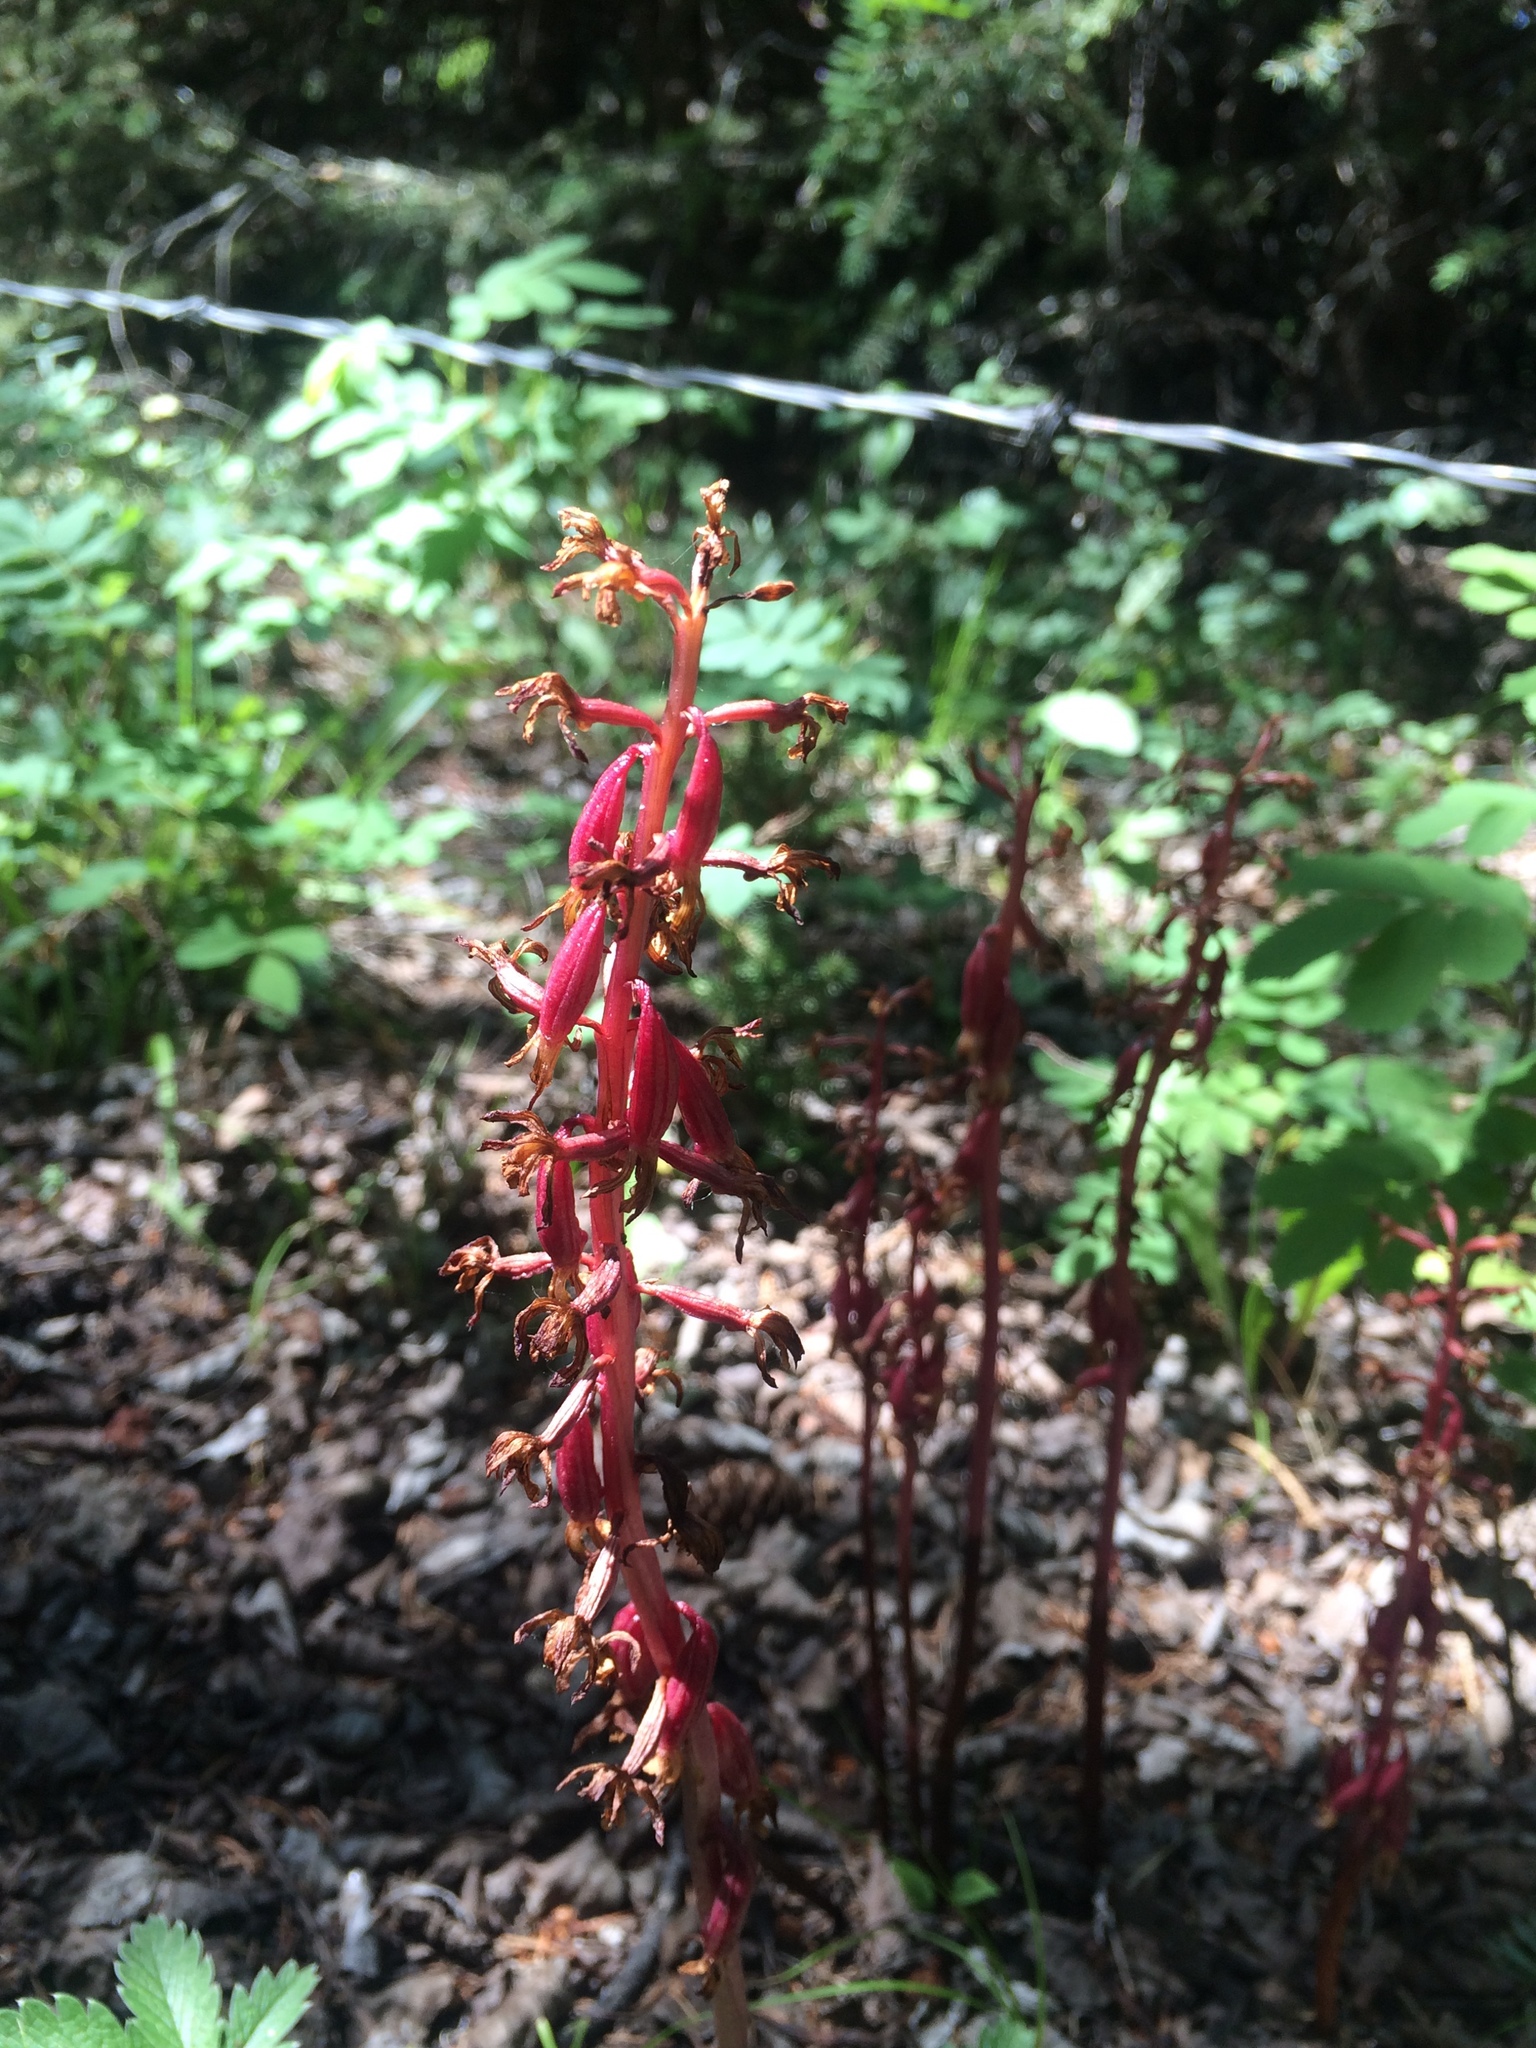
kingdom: Plantae
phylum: Tracheophyta
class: Liliopsida
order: Asparagales
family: Orchidaceae
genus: Corallorhiza
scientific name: Corallorhiza maculata
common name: Spotted coralroot
